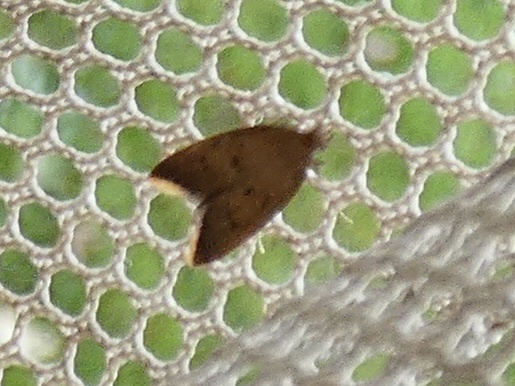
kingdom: Animalia
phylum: Arthropoda
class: Insecta
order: Lepidoptera
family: Oecophoridae
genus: Tachystola
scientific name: Tachystola acroxantha
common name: Ruddy streak
